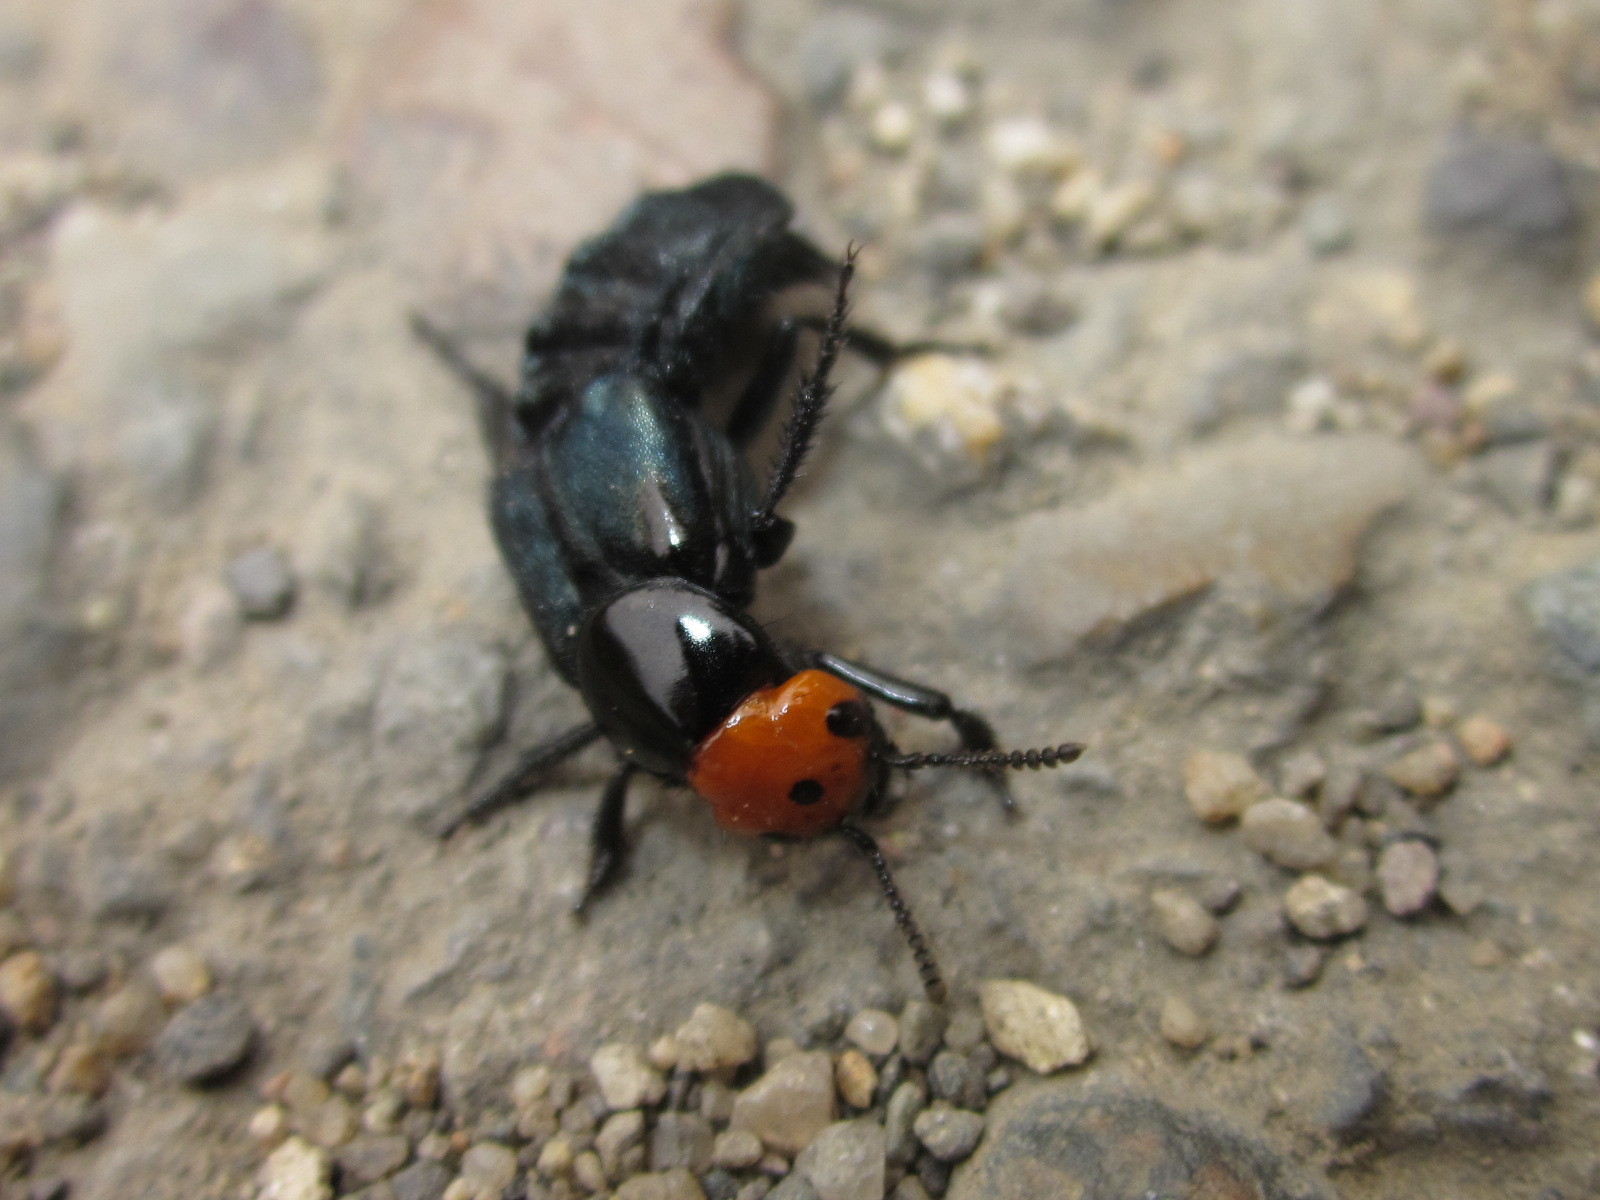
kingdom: Animalia
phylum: Arthropoda
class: Insecta
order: Coleoptera
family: Staphylinidae
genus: Creophilus
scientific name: Creophilus erythrocephalus
